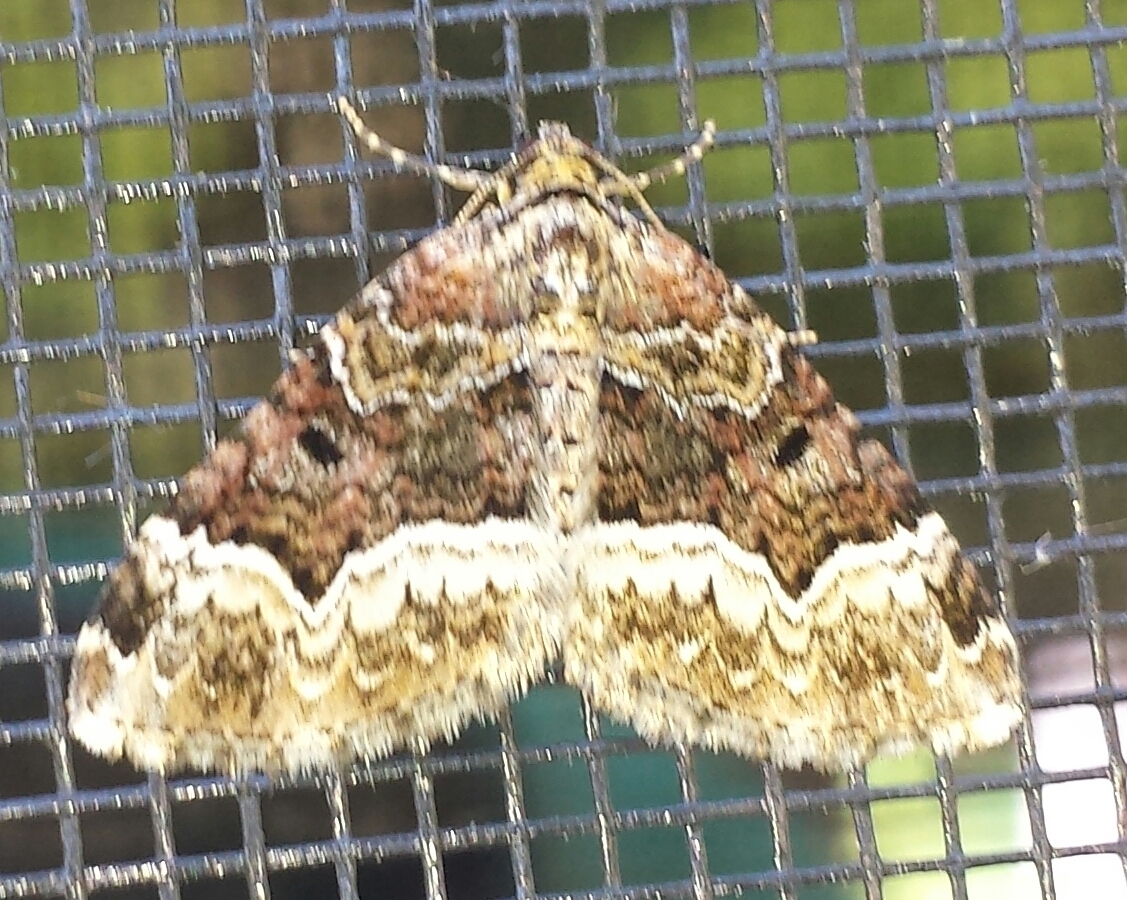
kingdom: Animalia
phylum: Arthropoda
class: Insecta
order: Lepidoptera
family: Geometridae
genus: Euphyia
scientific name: Euphyia intermediata
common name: Sharp-angled carpet
